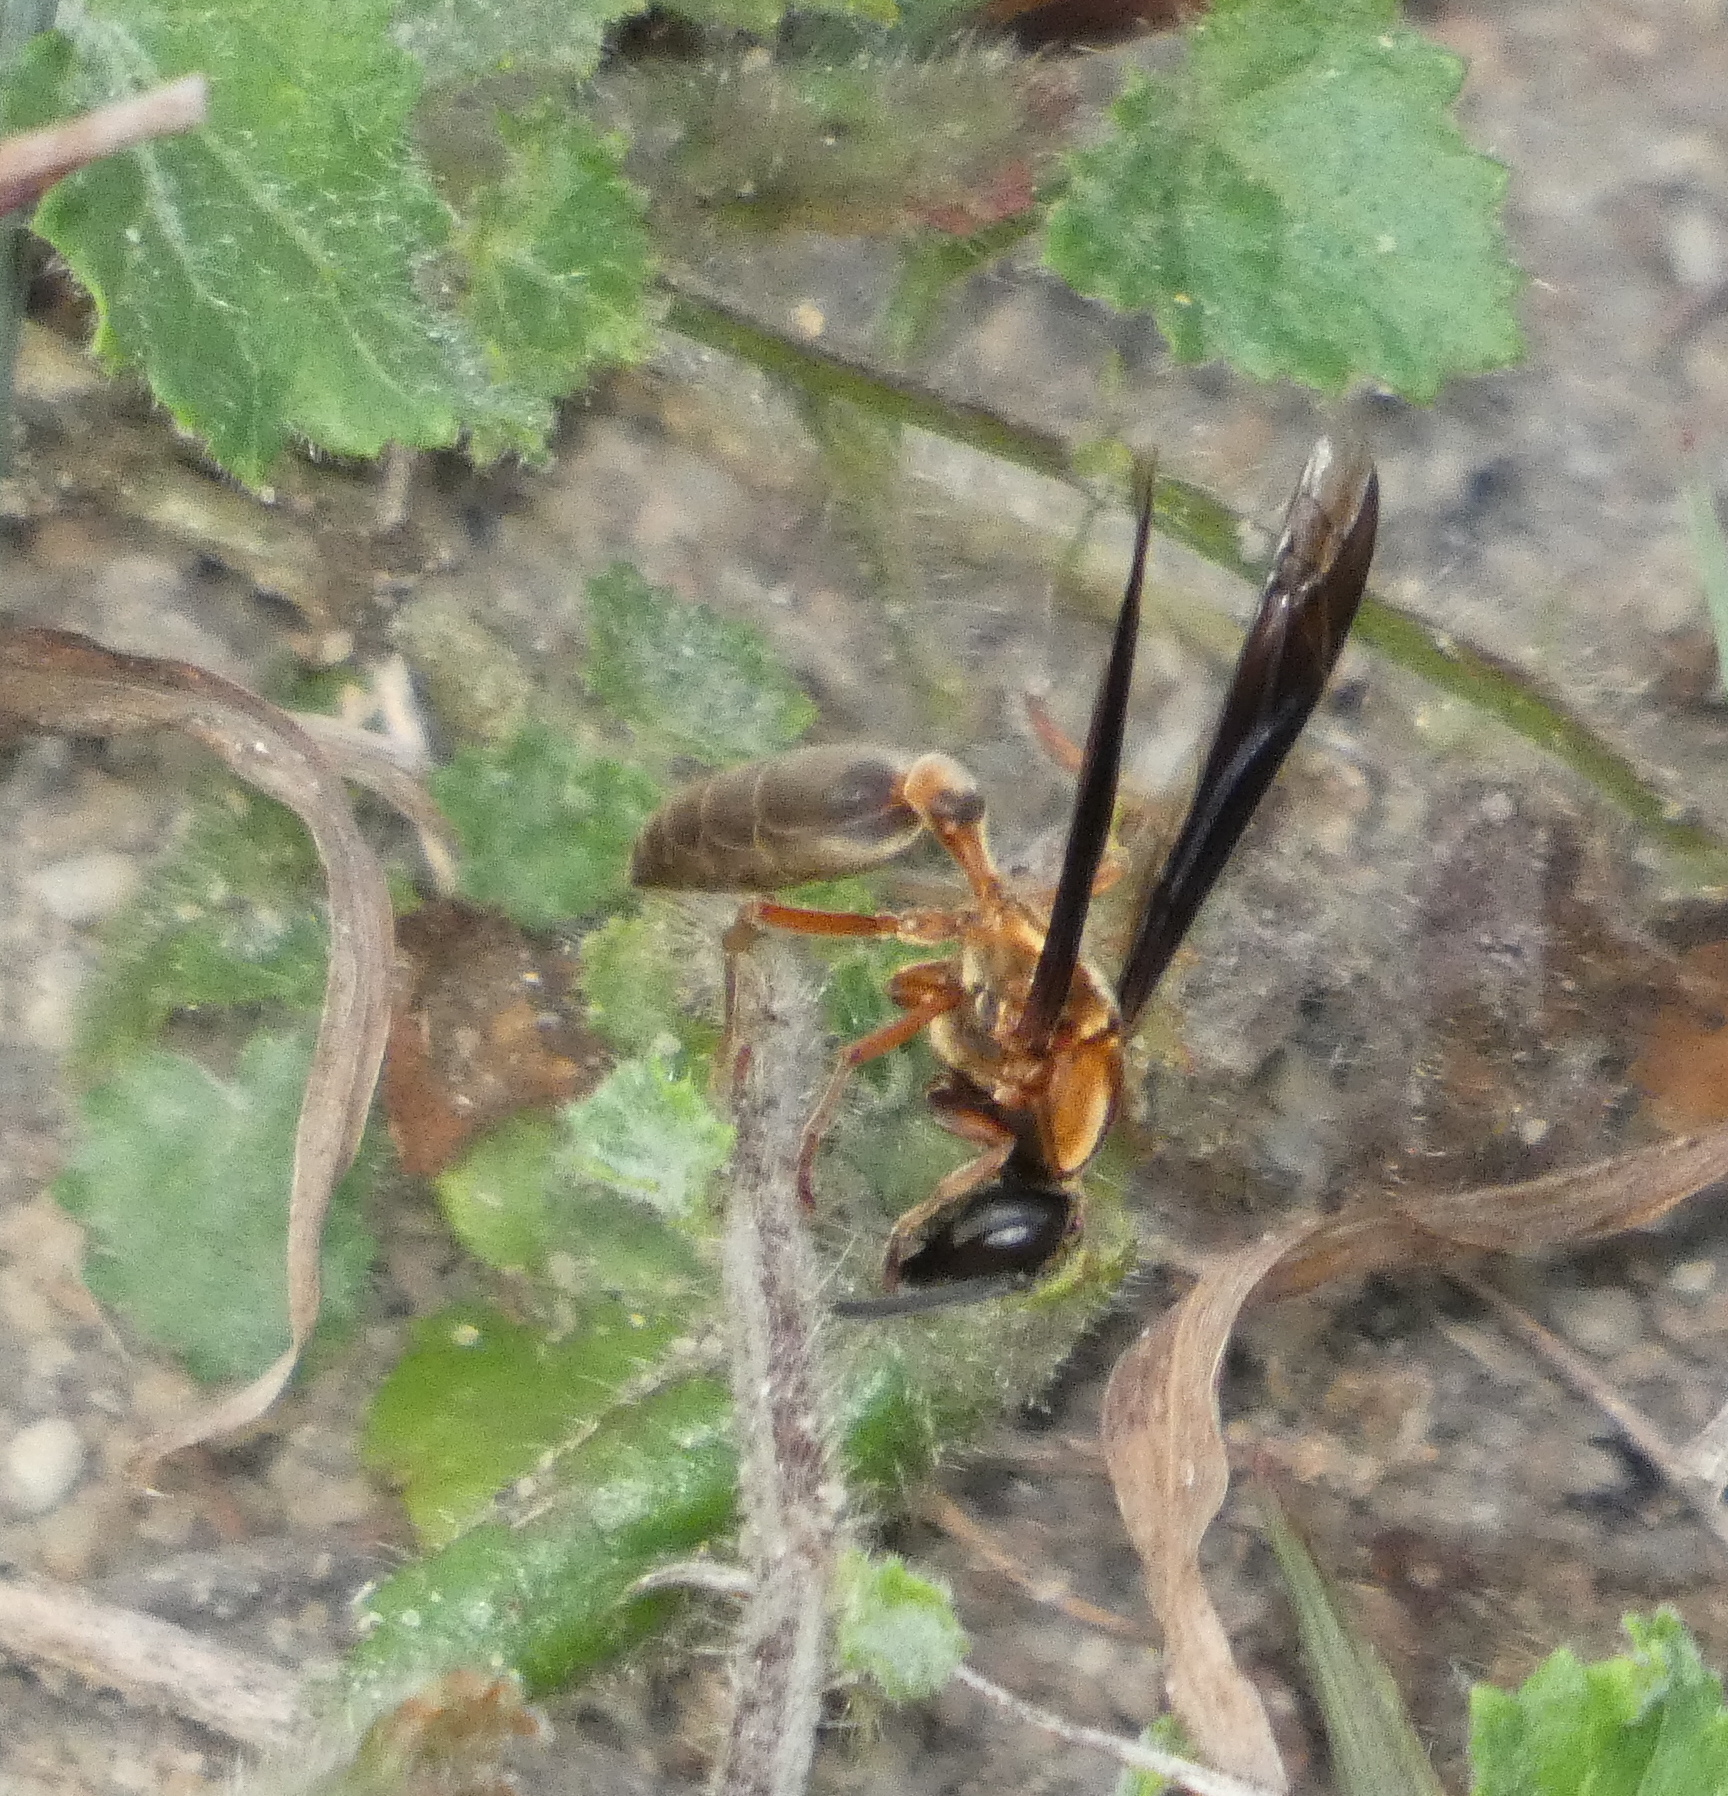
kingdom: Animalia
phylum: Arthropoda
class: Insecta
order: Hymenoptera
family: Eumenidae
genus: Polybia
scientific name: Polybia sericea
